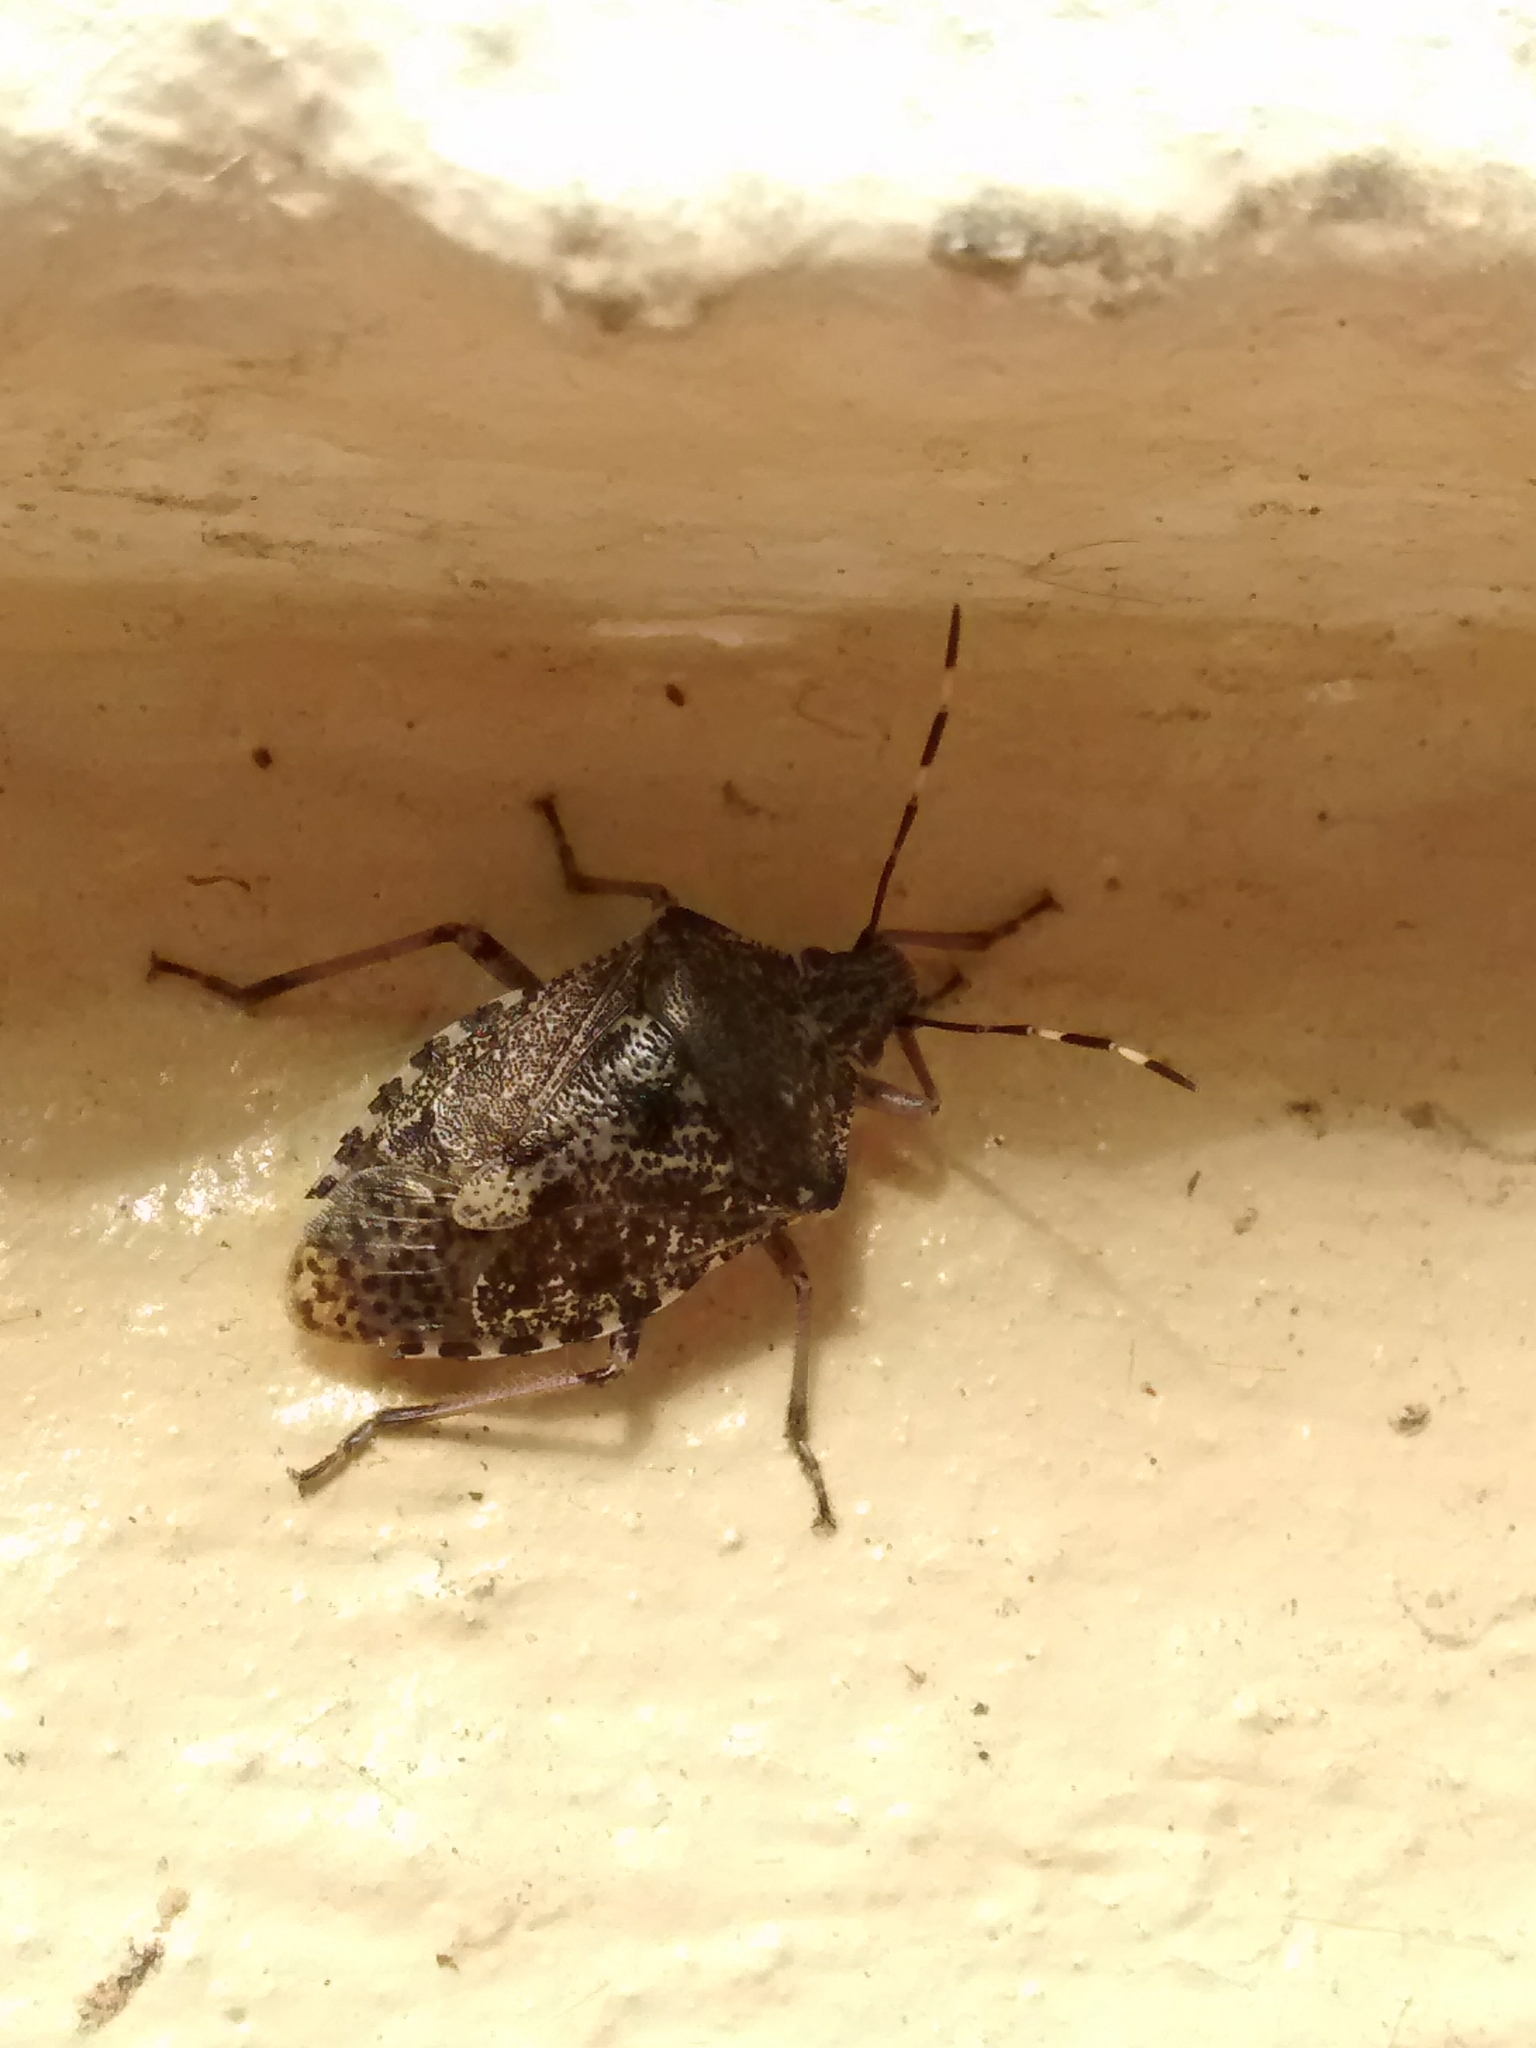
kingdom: Animalia
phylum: Arthropoda
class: Insecta
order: Hemiptera
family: Pentatomidae
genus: Rhaphigaster
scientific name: Rhaphigaster nebulosa
